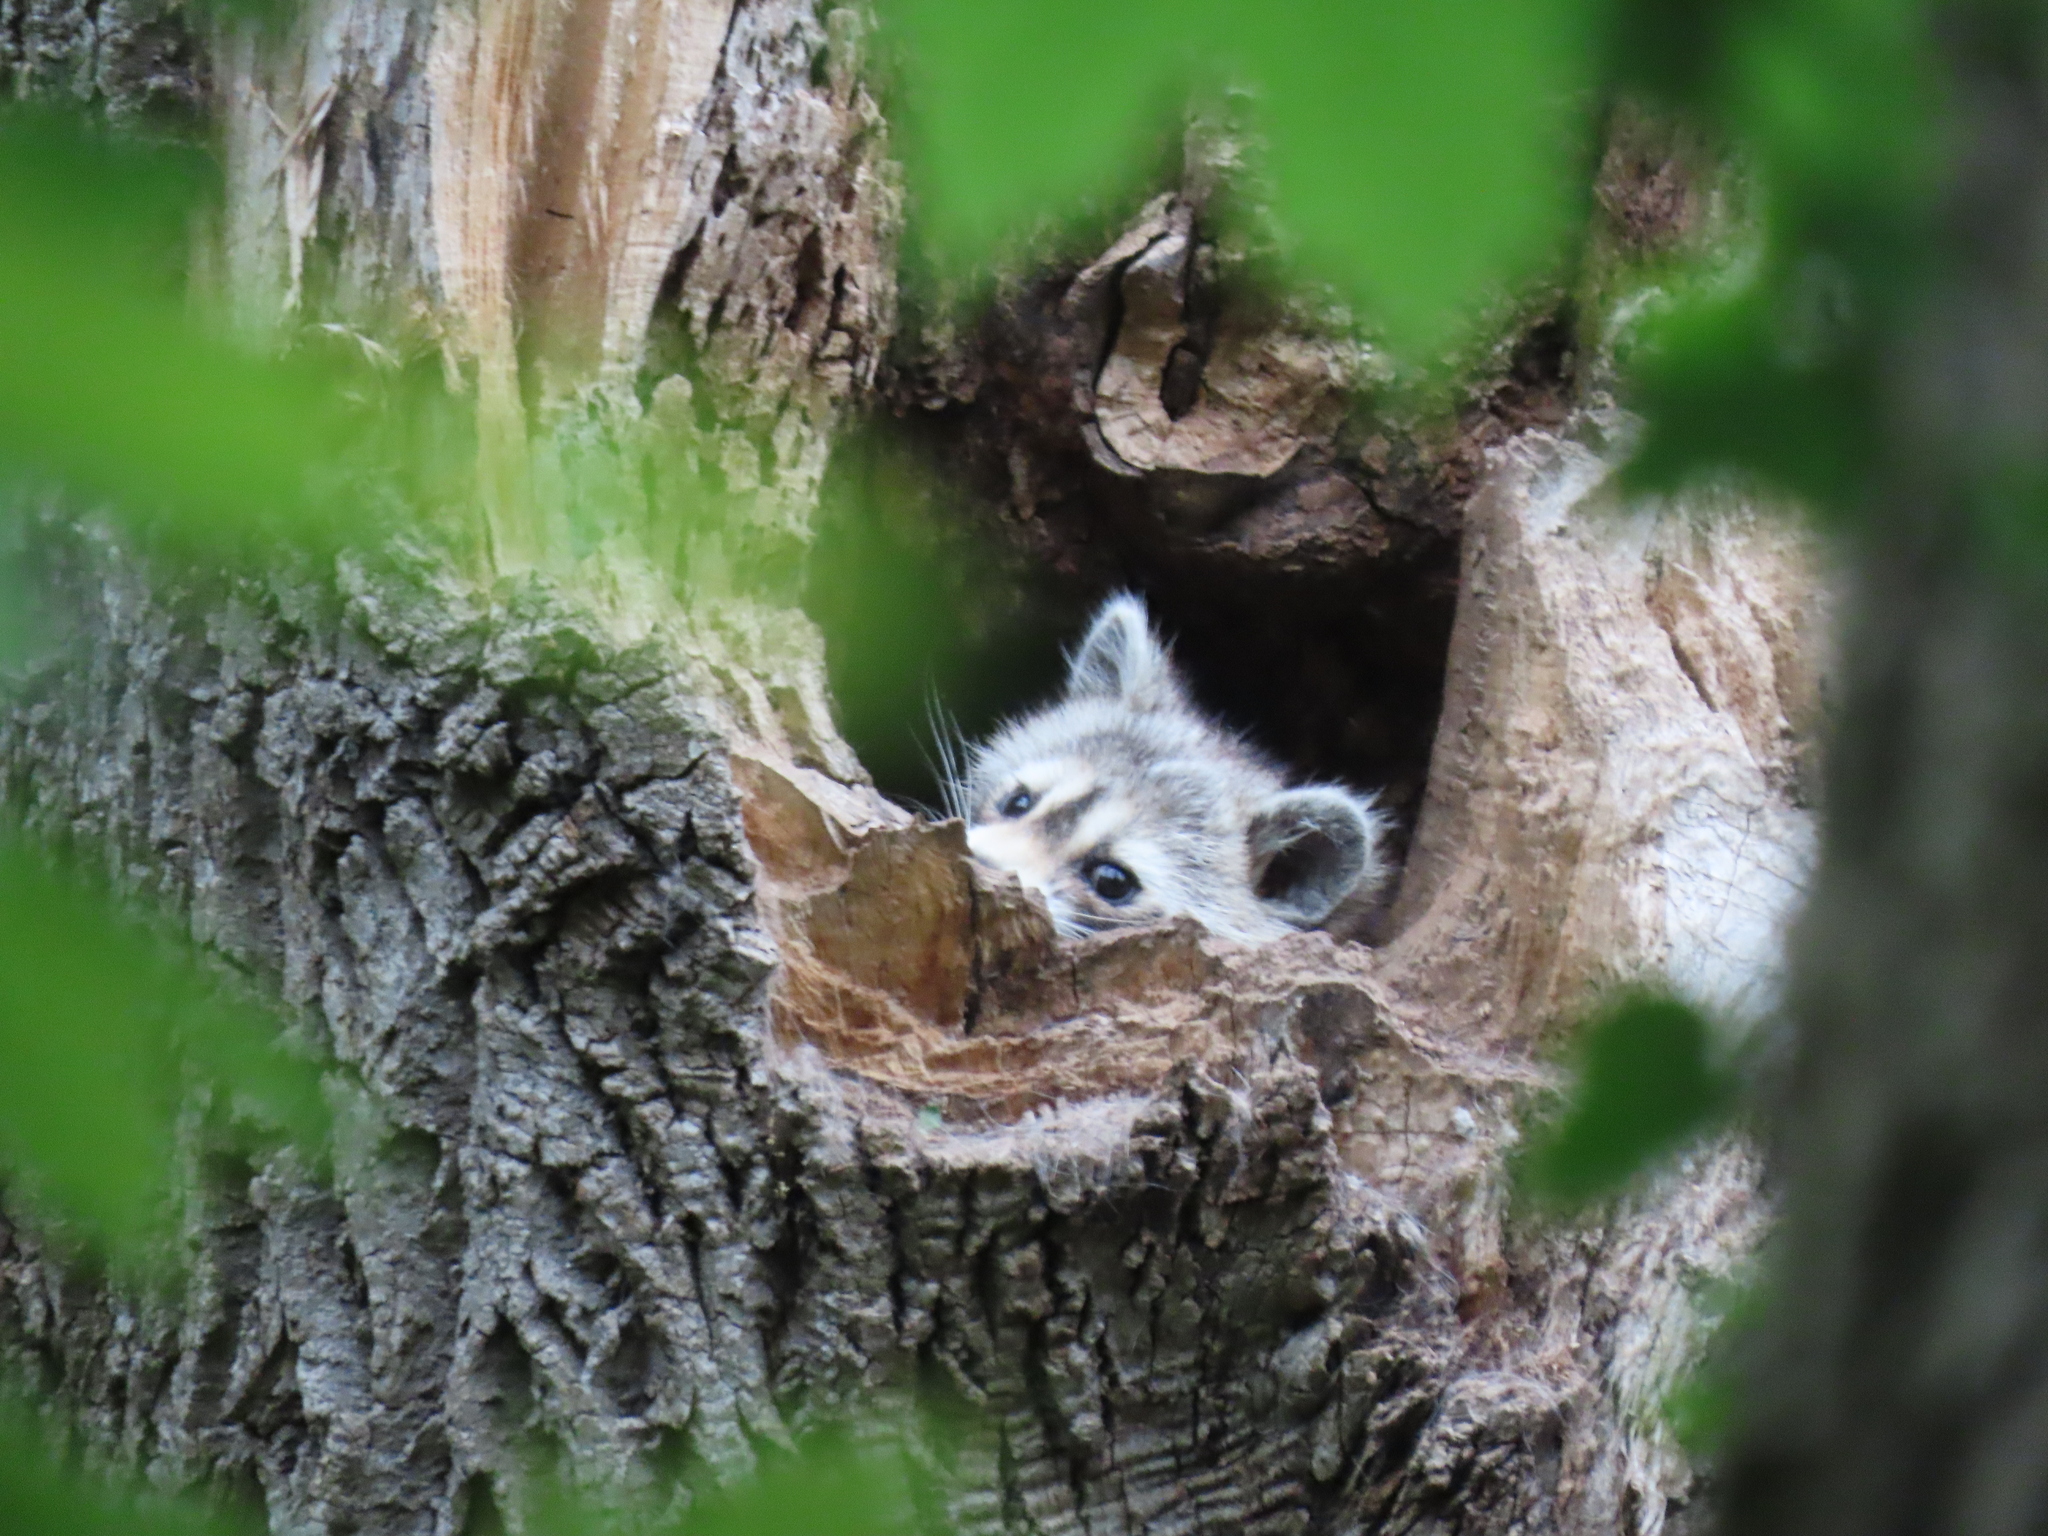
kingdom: Animalia
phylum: Chordata
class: Mammalia
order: Carnivora
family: Procyonidae
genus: Procyon
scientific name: Procyon lotor
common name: Raccoon
